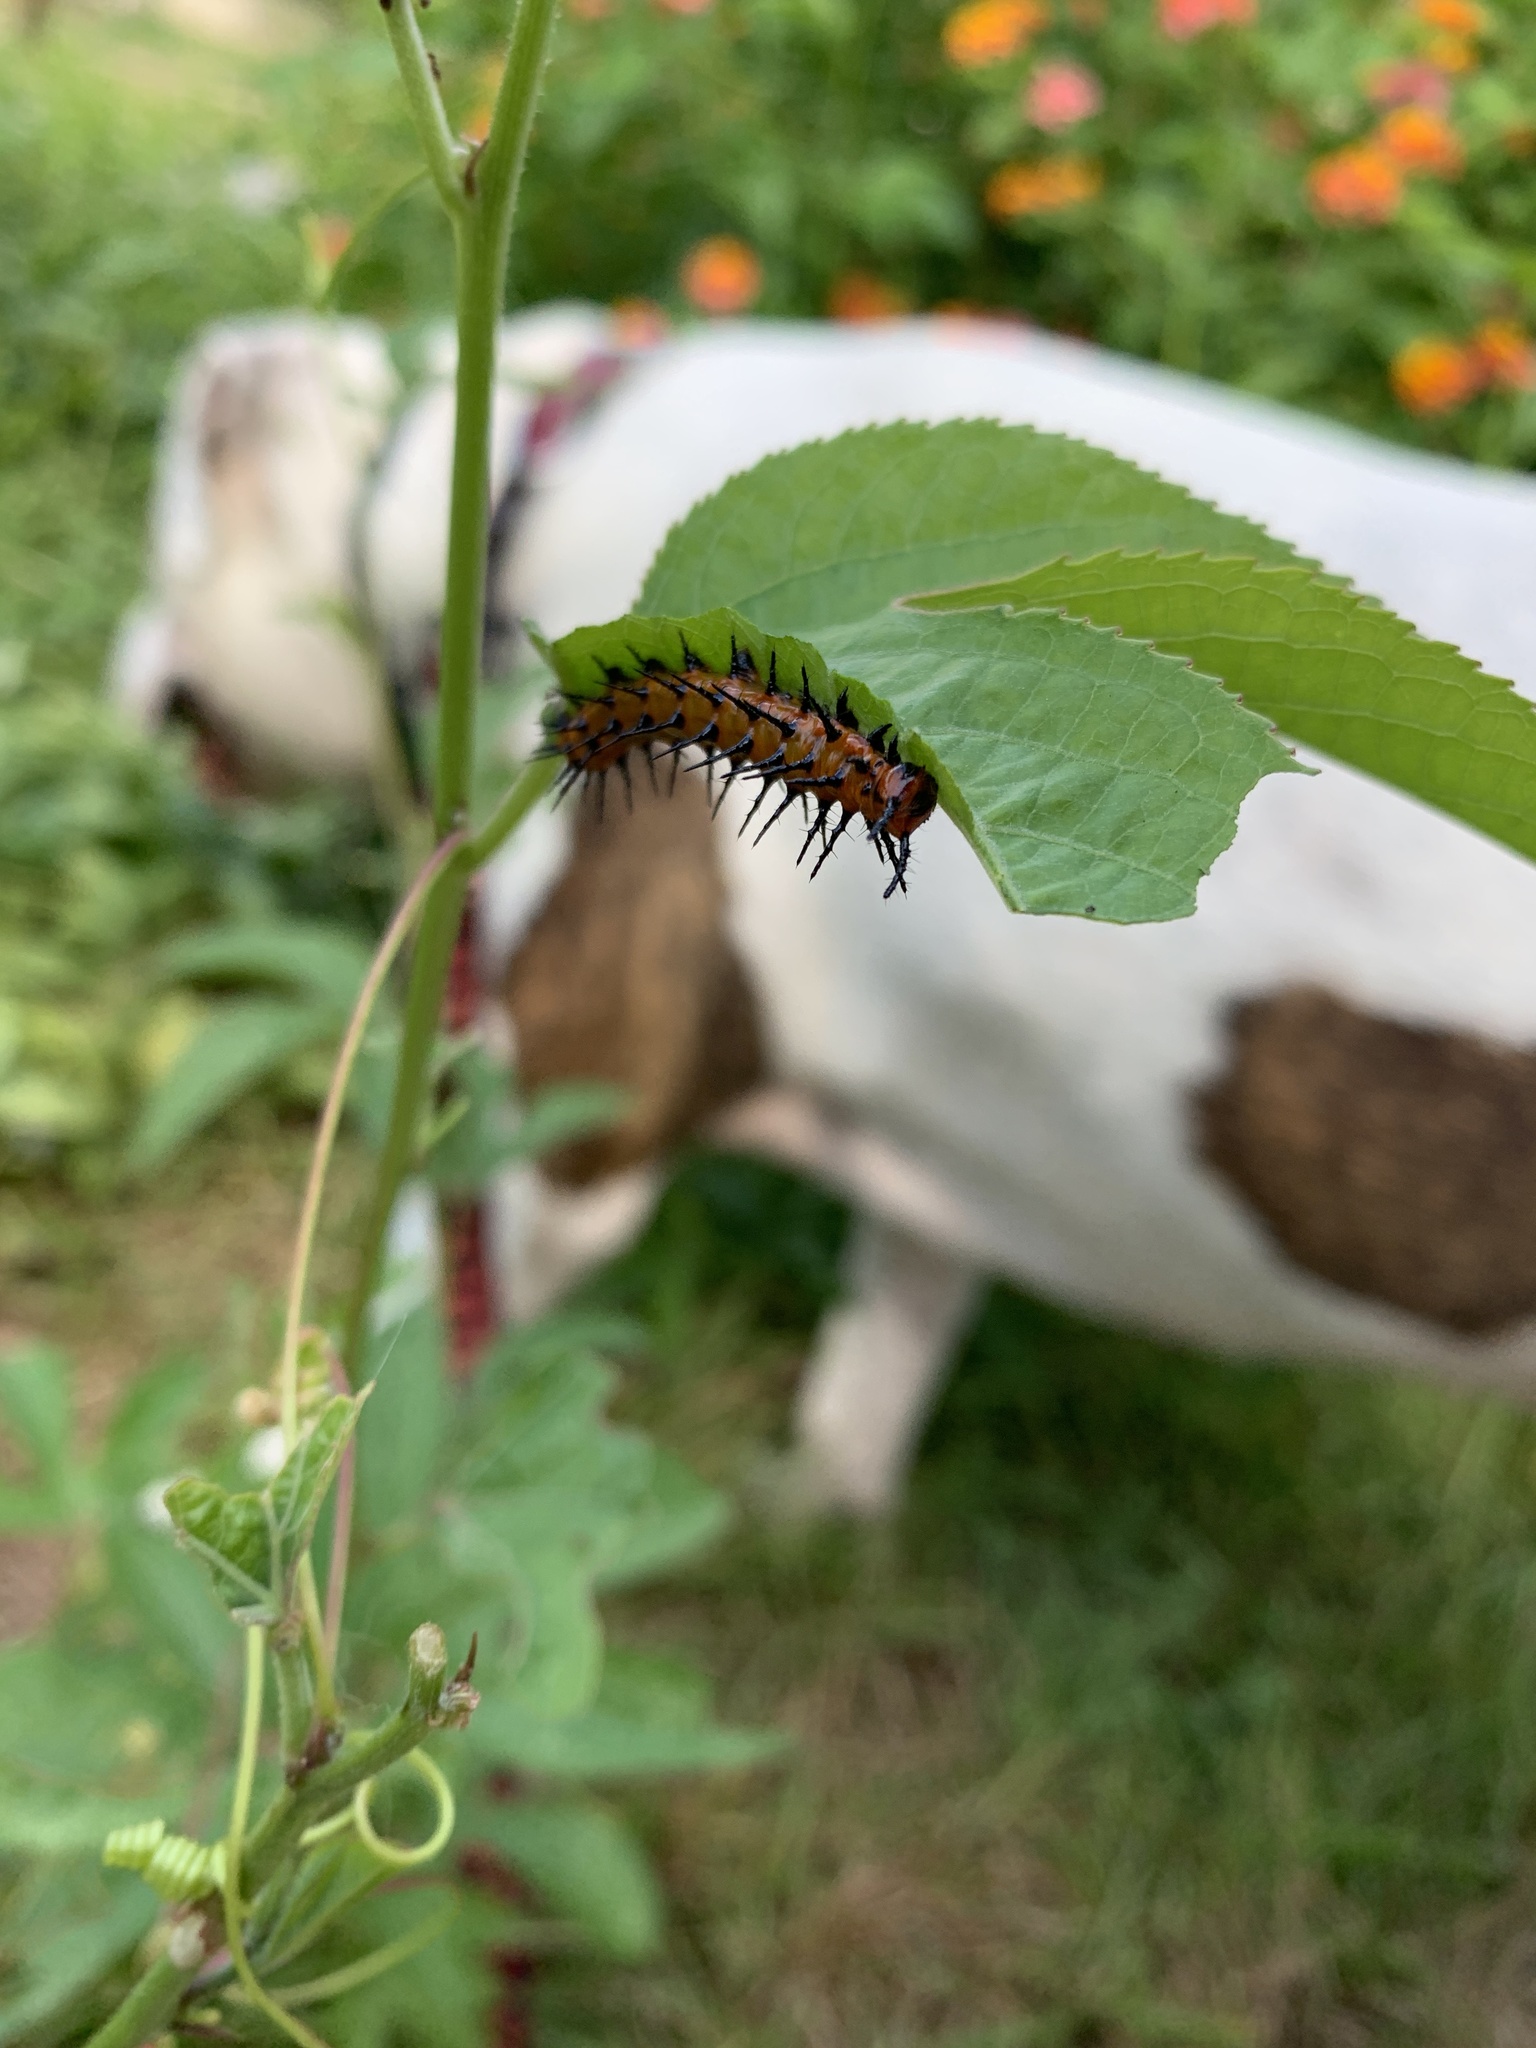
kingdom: Animalia
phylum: Arthropoda
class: Insecta
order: Lepidoptera
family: Nymphalidae
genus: Dione
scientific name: Dione vanillae
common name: Gulf fritillary
